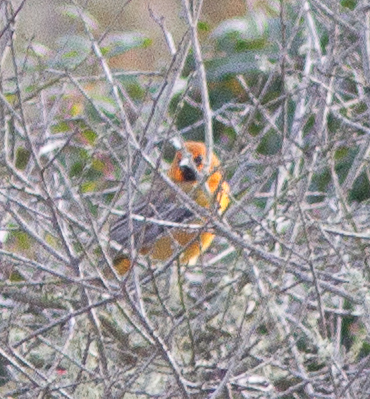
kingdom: Animalia
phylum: Chordata
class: Aves
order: Passeriformes
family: Icteridae
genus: Icterus
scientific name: Icterus pustulatus
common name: Streak-backed oriole
